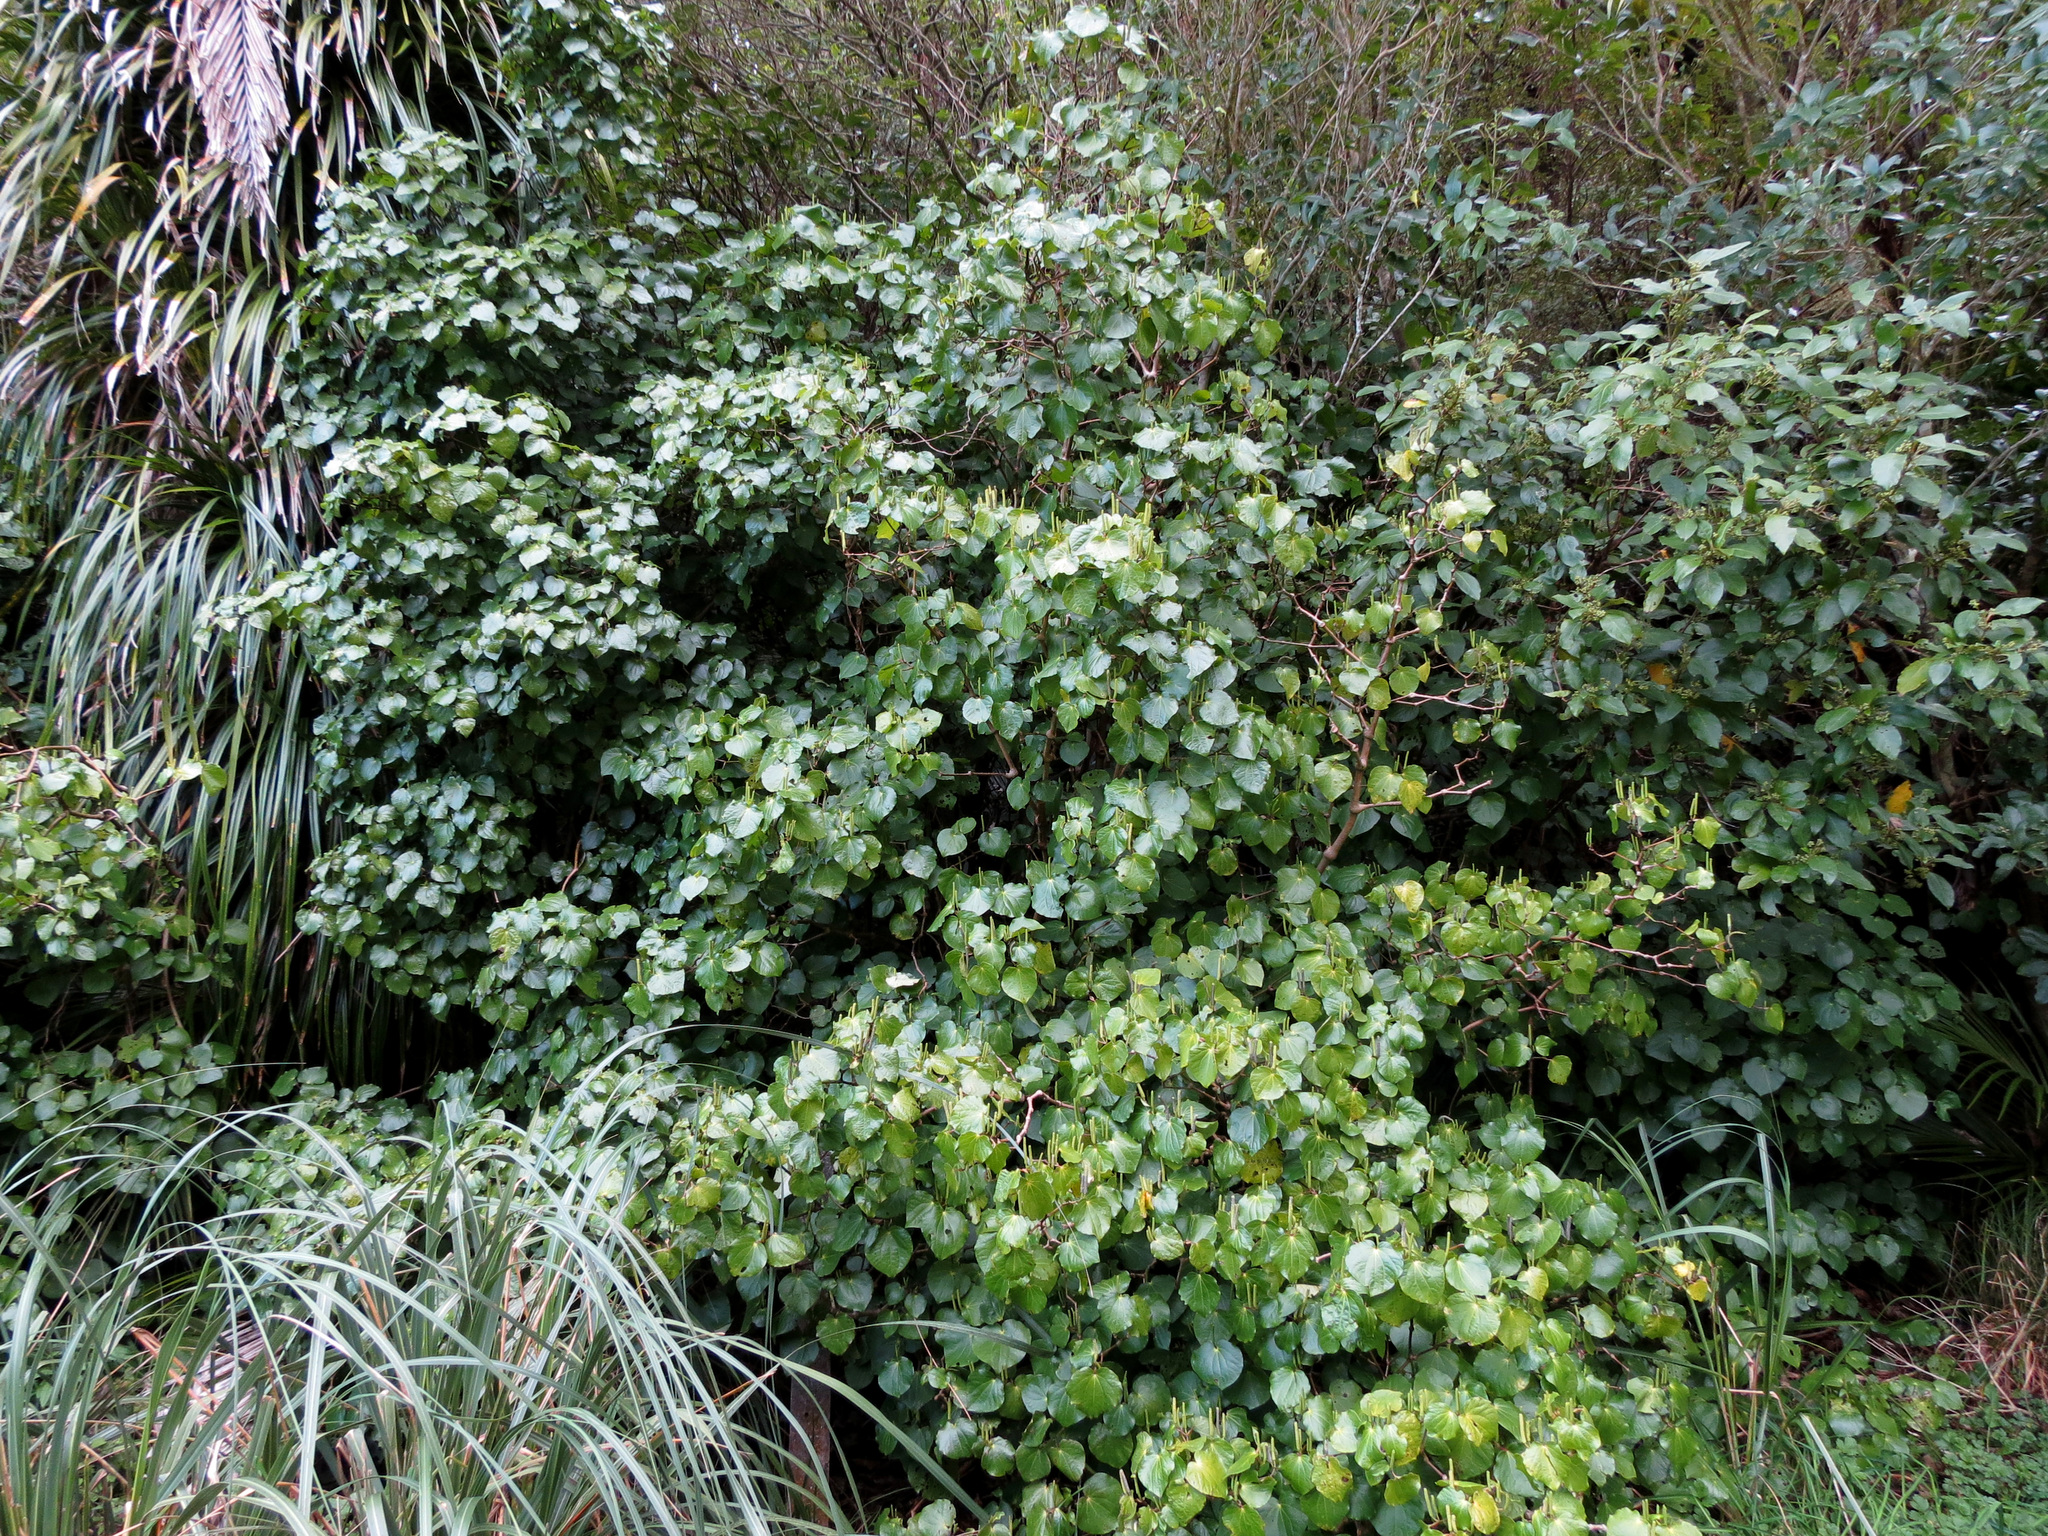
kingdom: Plantae
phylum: Tracheophyta
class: Magnoliopsida
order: Piperales
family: Piperaceae
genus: Macropiper
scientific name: Macropiper excelsum
